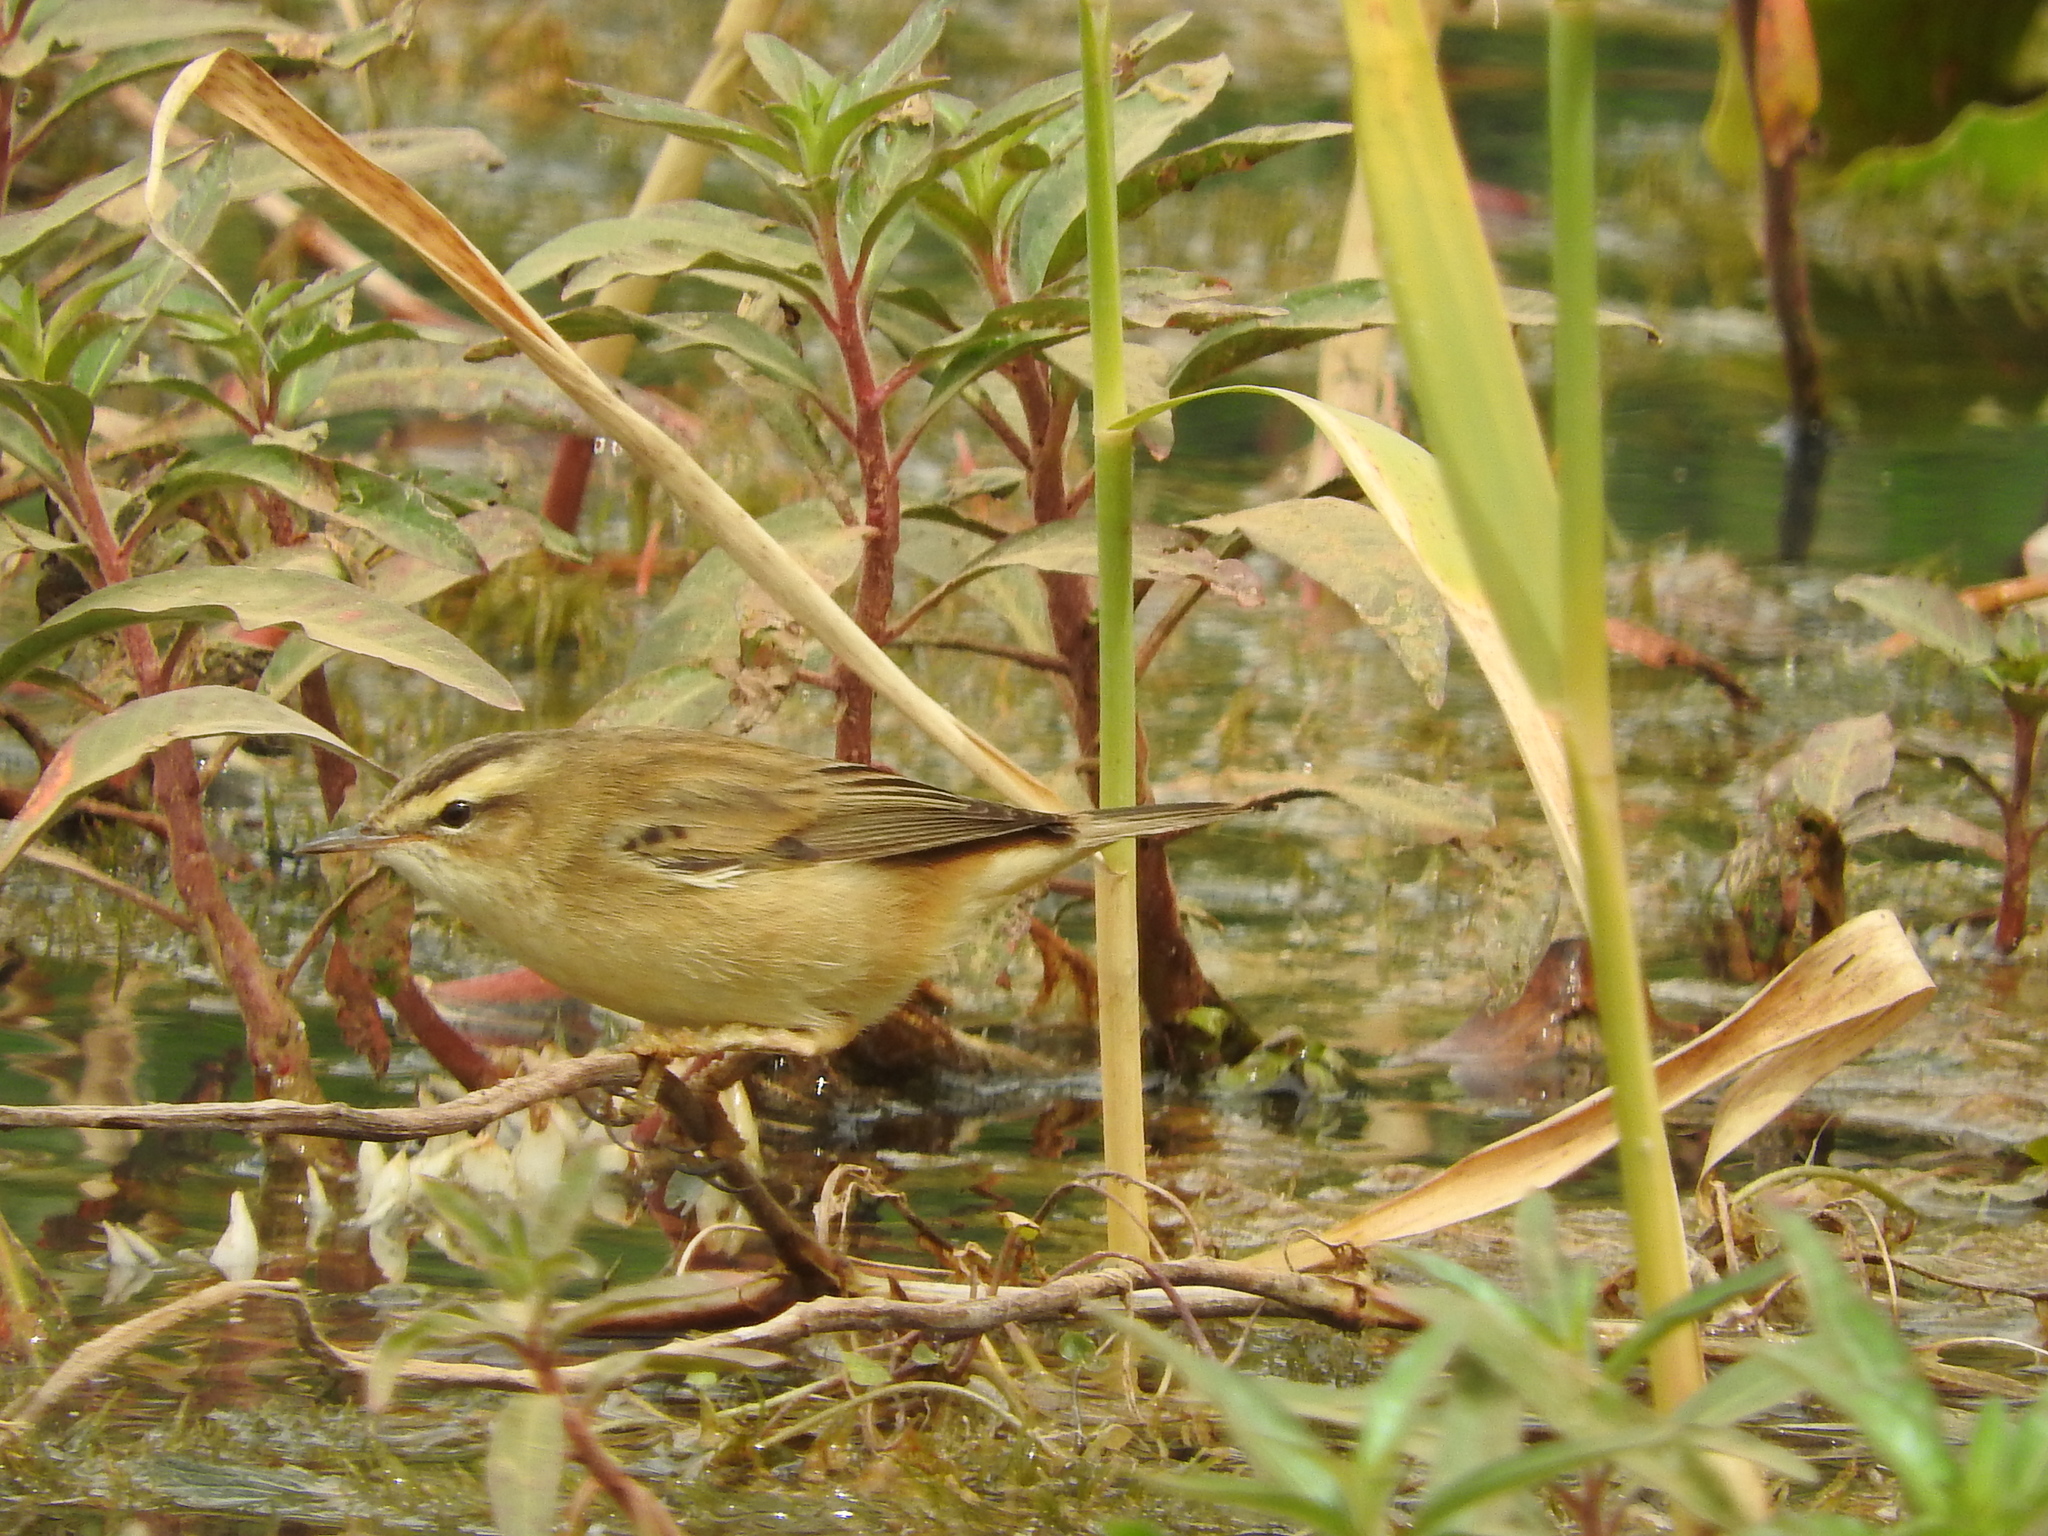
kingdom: Animalia
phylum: Chordata
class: Aves
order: Passeriformes
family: Acrocephalidae
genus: Acrocephalus
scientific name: Acrocephalus schoenobaenus
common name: Sedge warbler
